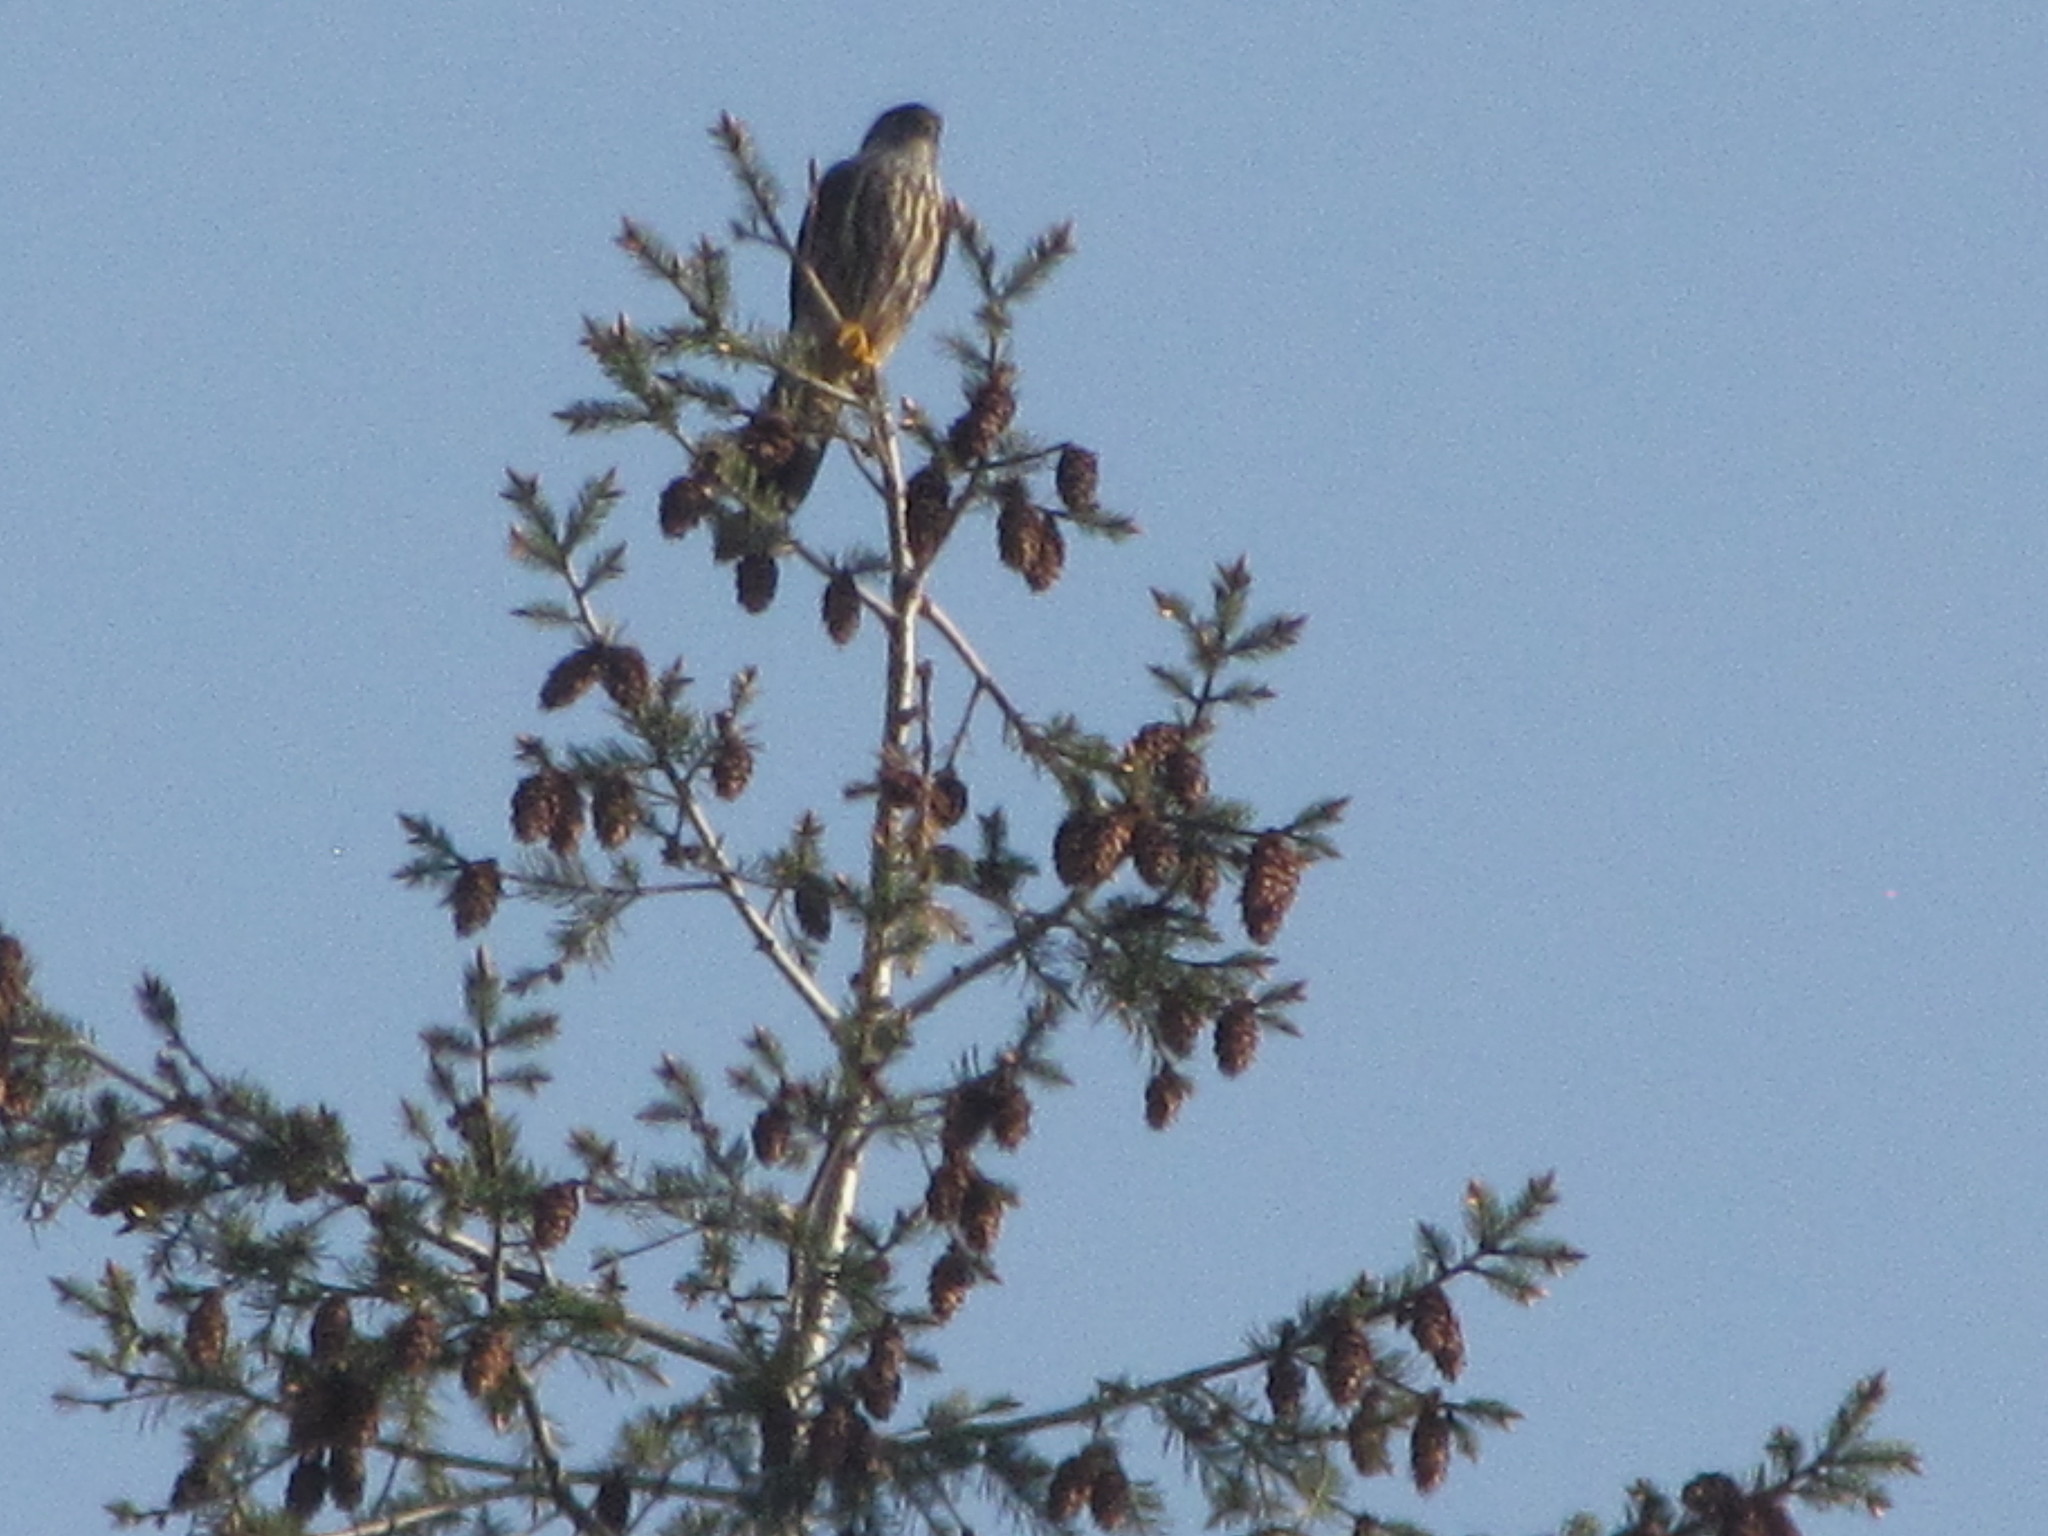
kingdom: Animalia
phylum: Chordata
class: Aves
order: Falconiformes
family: Falconidae
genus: Falco
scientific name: Falco columbarius
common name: Merlin
